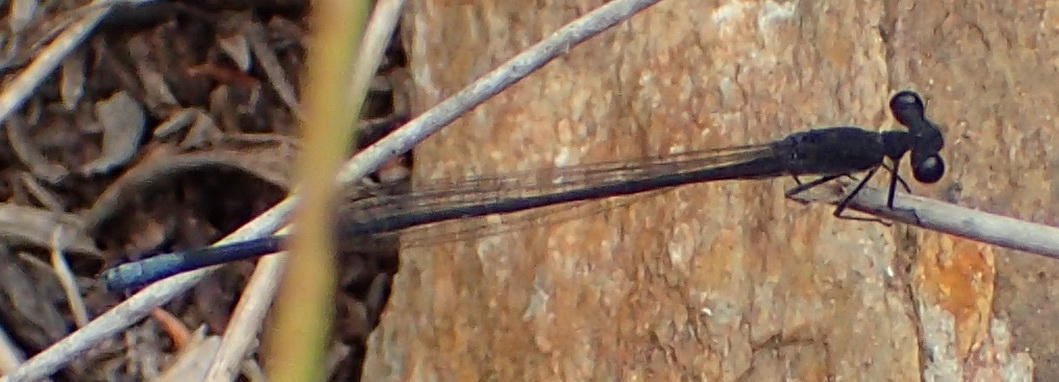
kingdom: Animalia
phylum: Arthropoda
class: Insecta
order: Odonata
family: Platycnemididae
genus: Elattoneura
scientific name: Elattoneura frenulata
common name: Sooty threadtail
